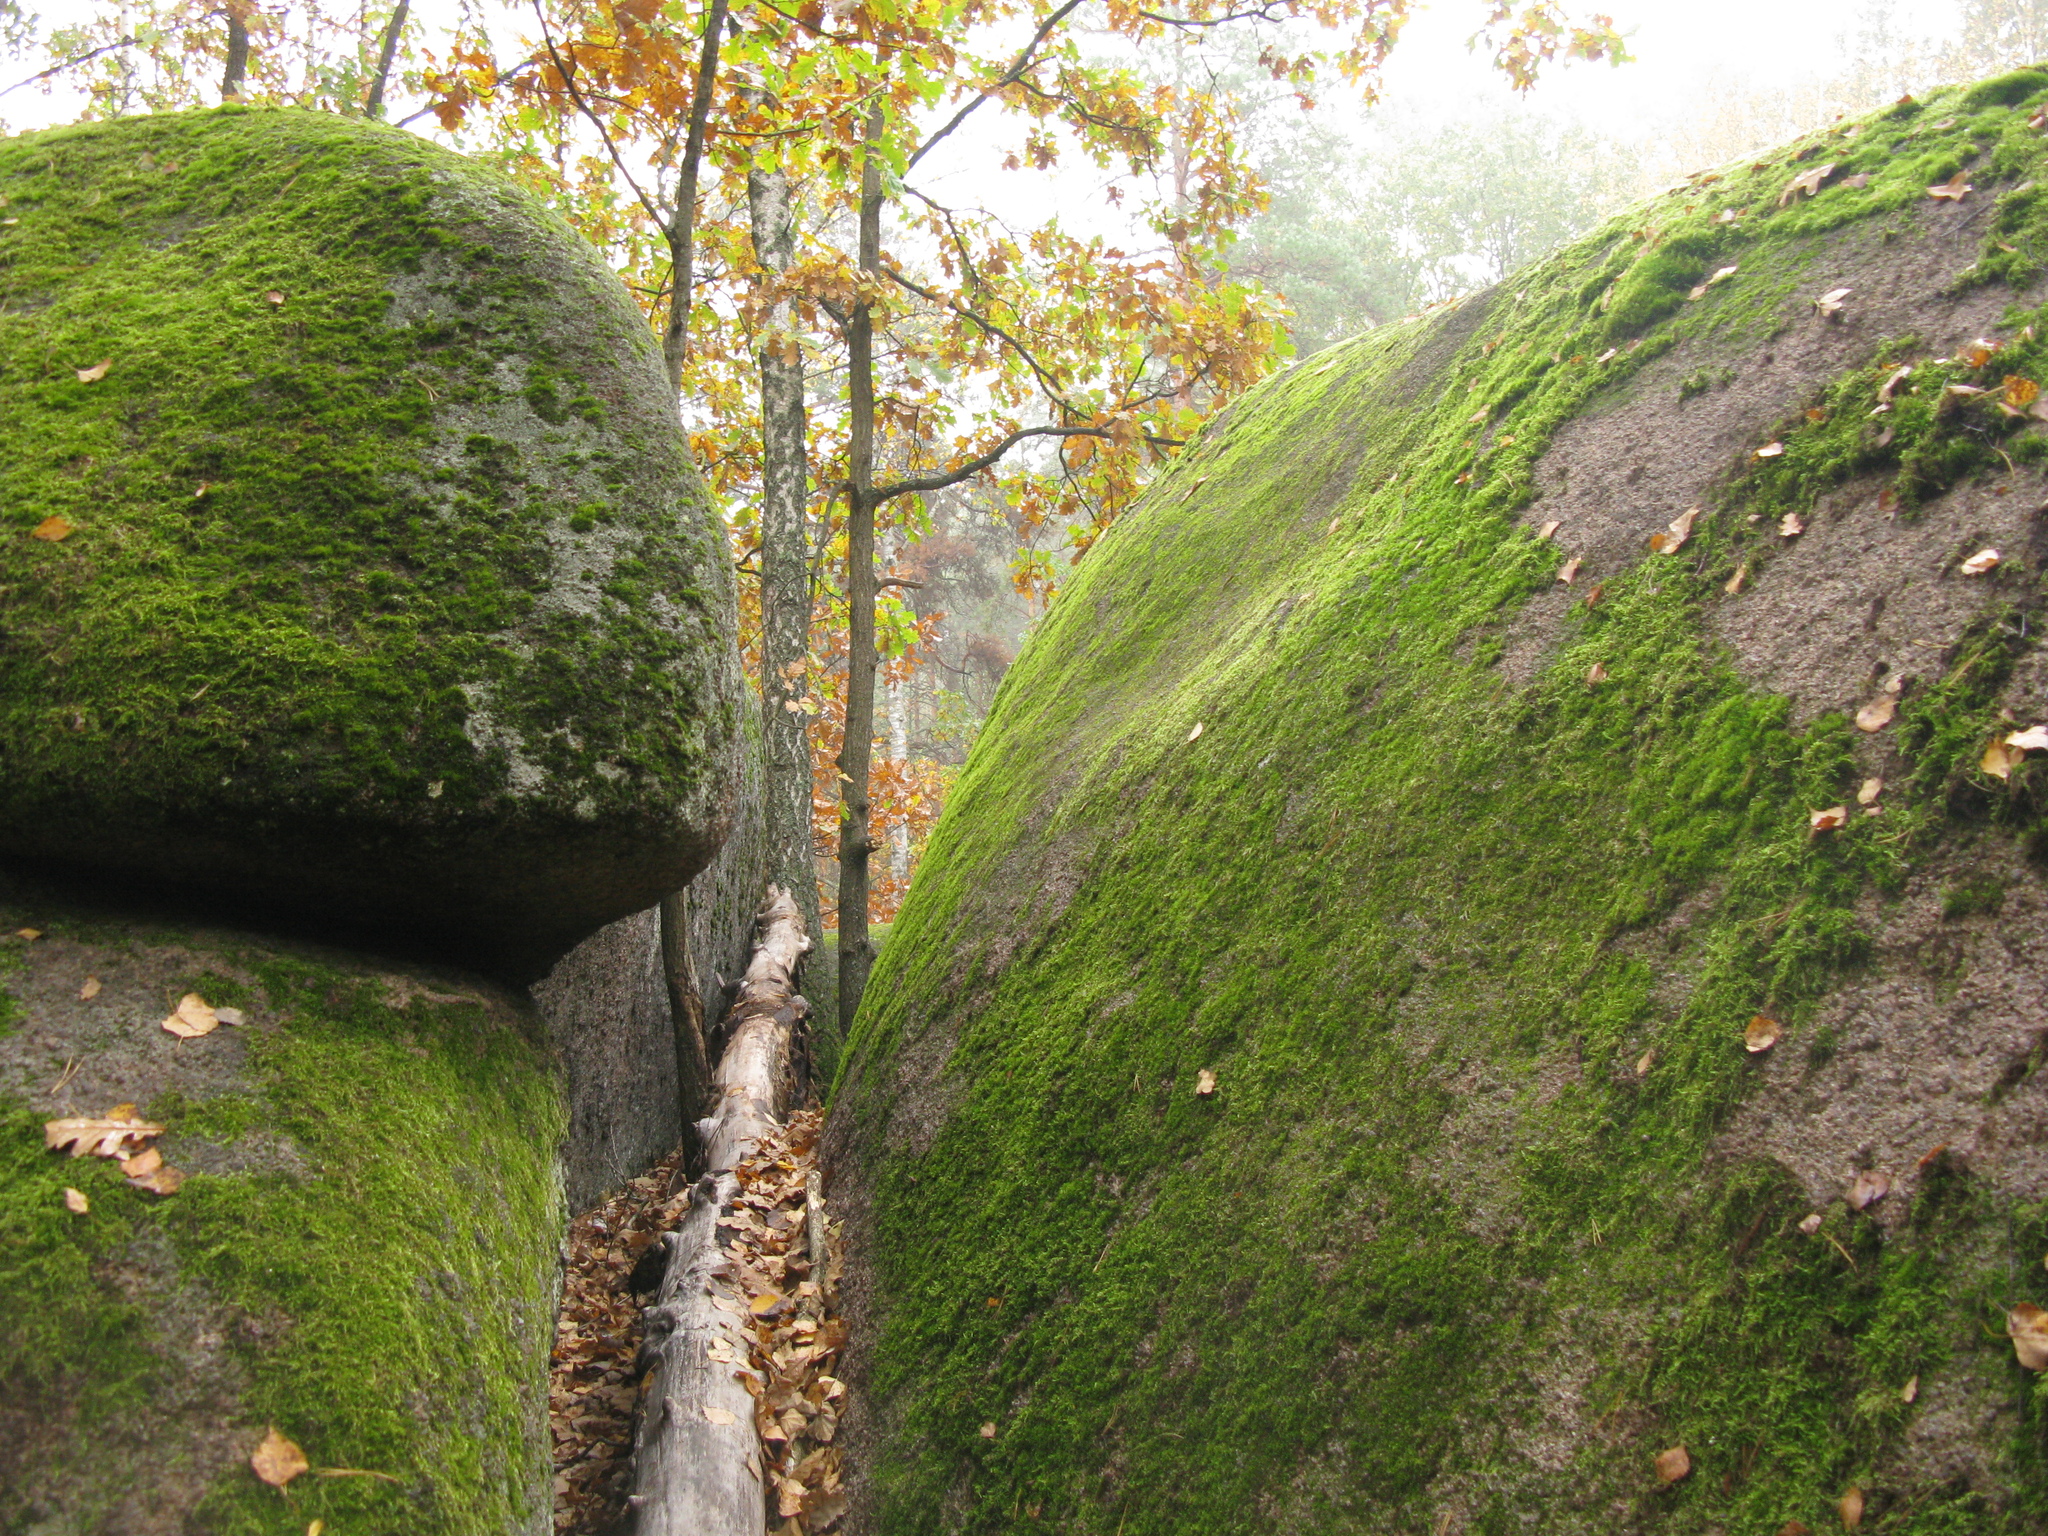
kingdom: Plantae
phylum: Tracheophyta
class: Magnoliopsida
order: Fagales
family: Fagaceae
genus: Quercus
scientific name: Quercus robur
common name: Pedunculate oak
